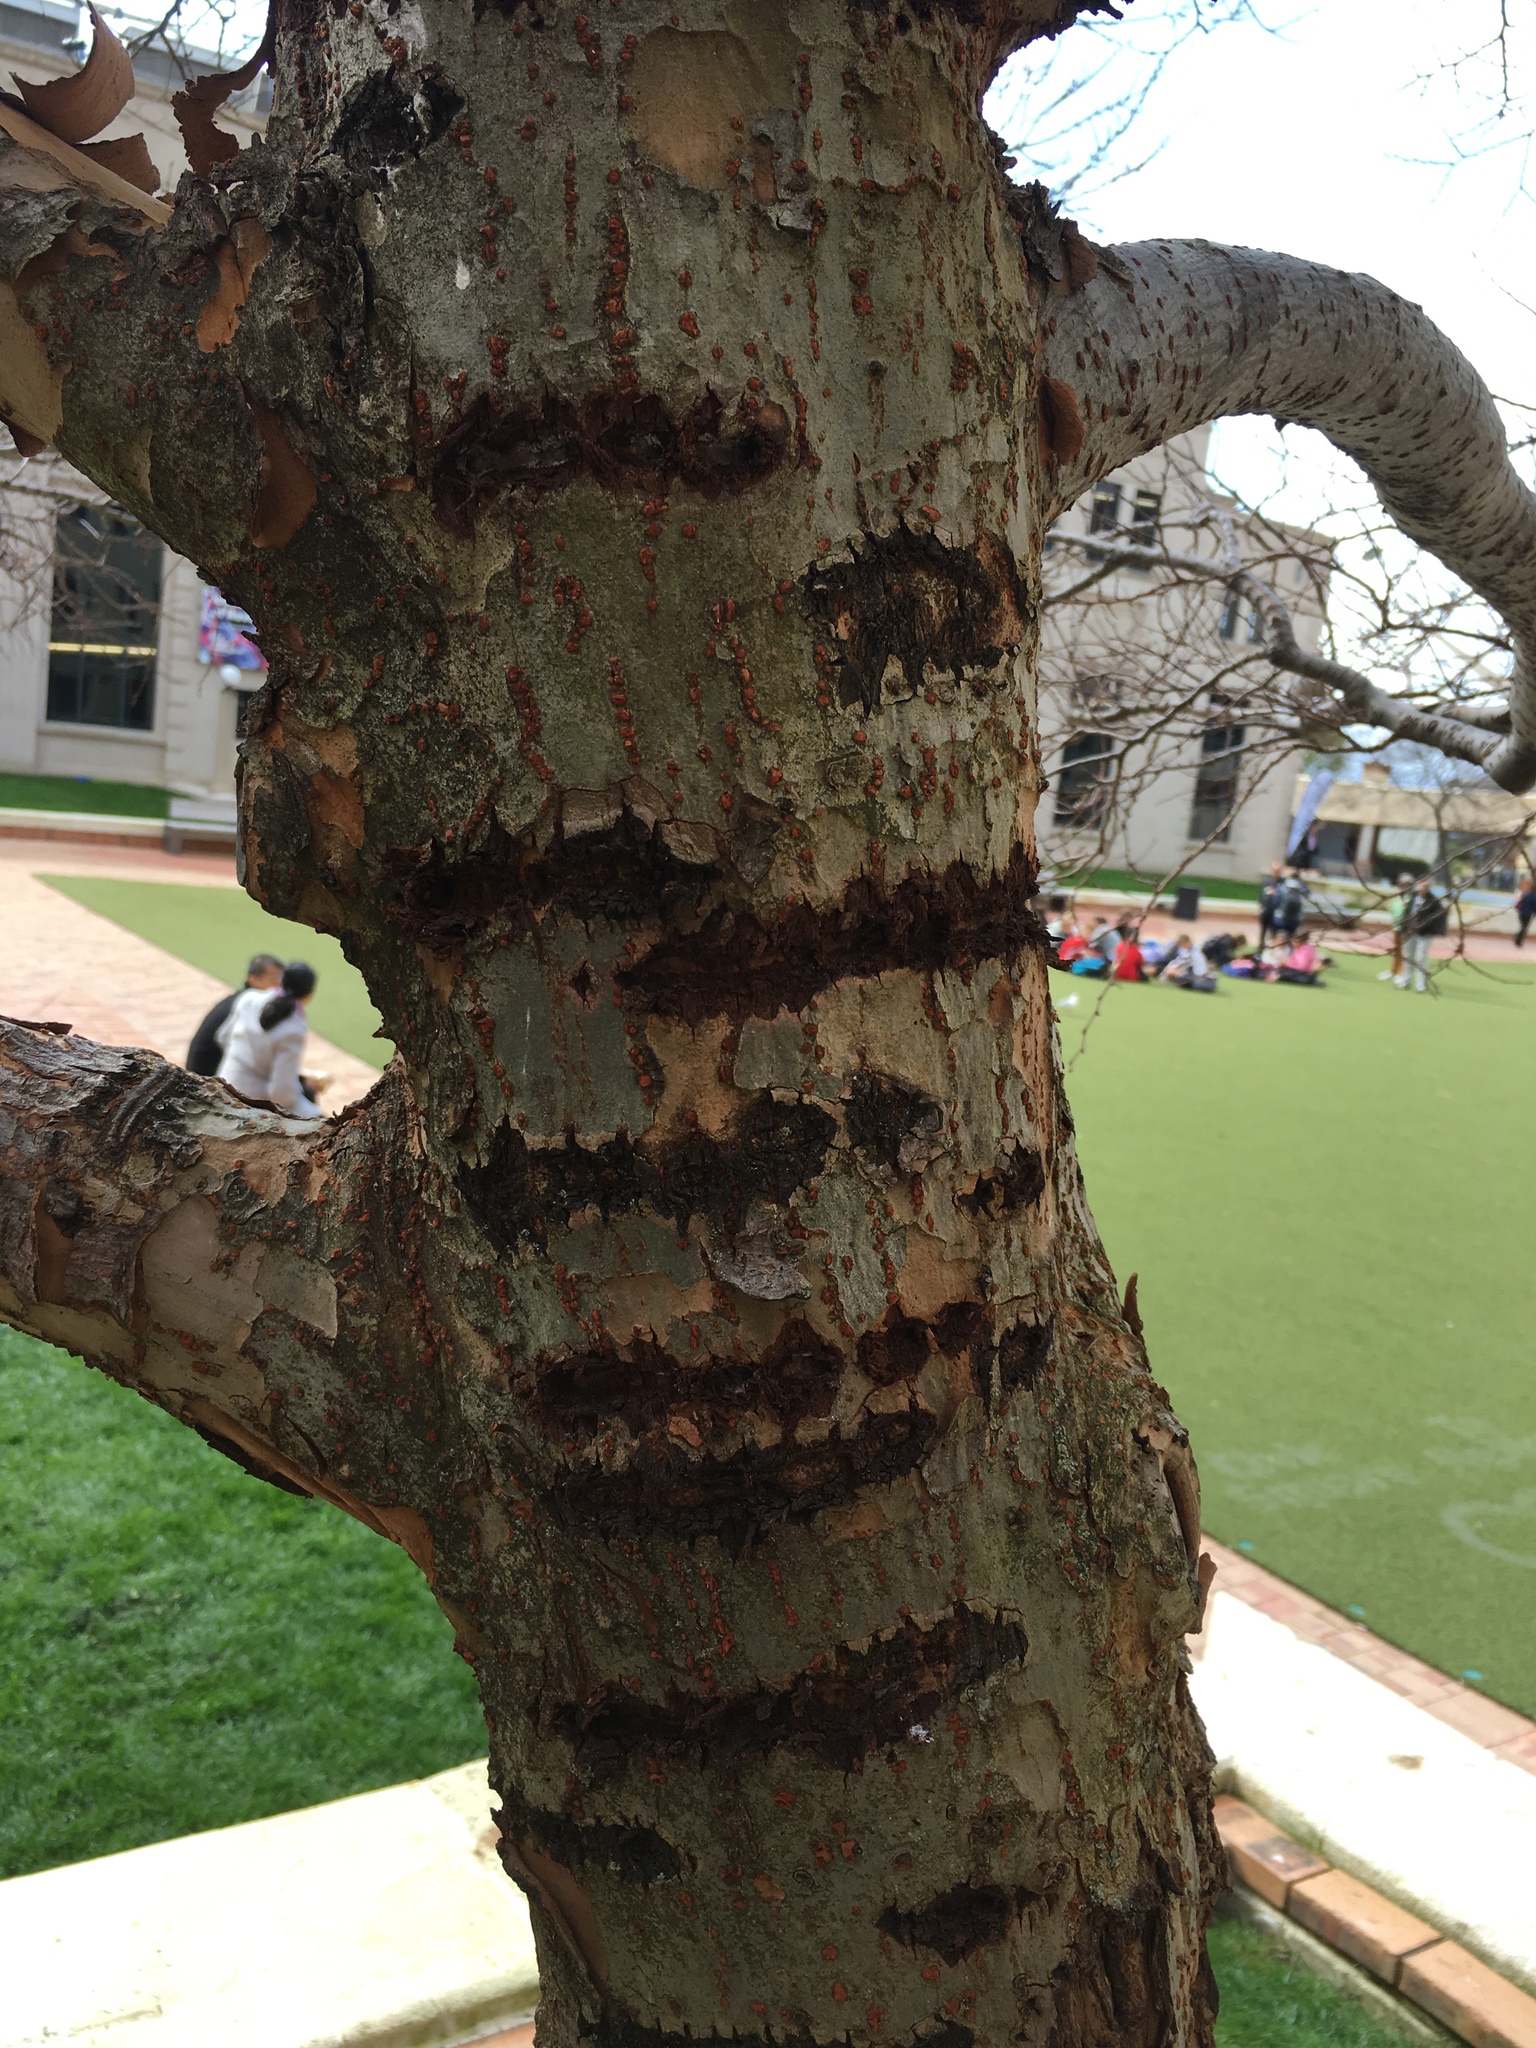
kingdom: Animalia
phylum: Chordata
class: Aves
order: Psittaciformes
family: Psittacidae
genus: Nestor
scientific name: Nestor meridionalis
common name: New zealand kaka
